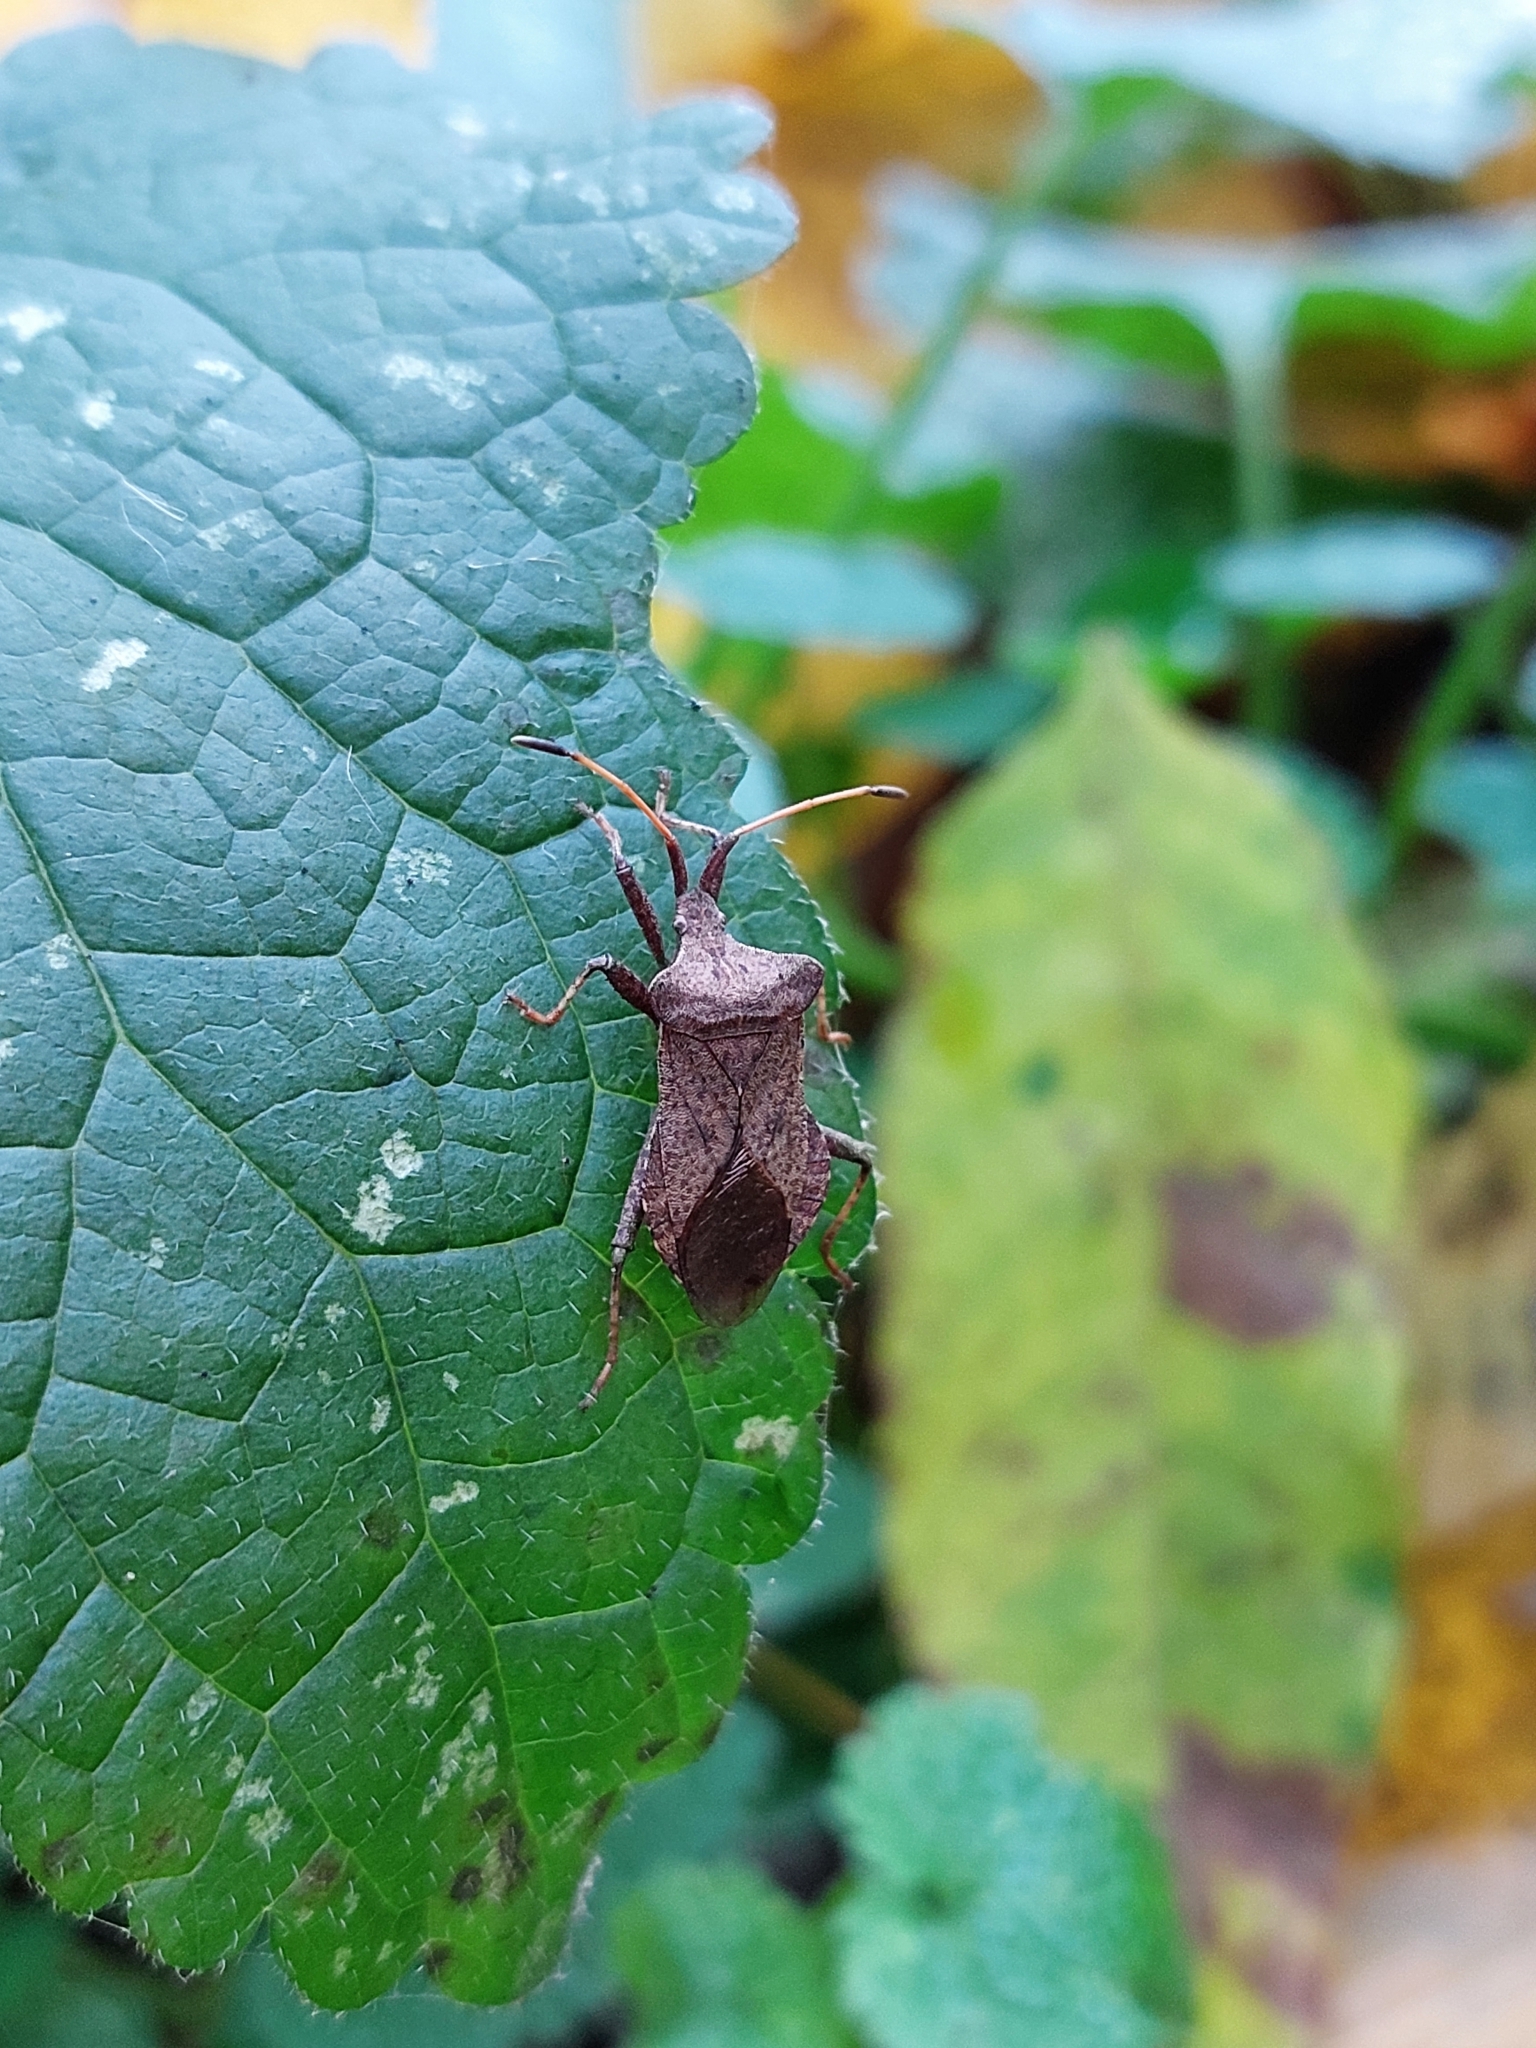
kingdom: Animalia
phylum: Arthropoda
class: Insecta
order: Hemiptera
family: Coreidae
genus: Coreus
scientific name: Coreus marginatus
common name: Dock bug
